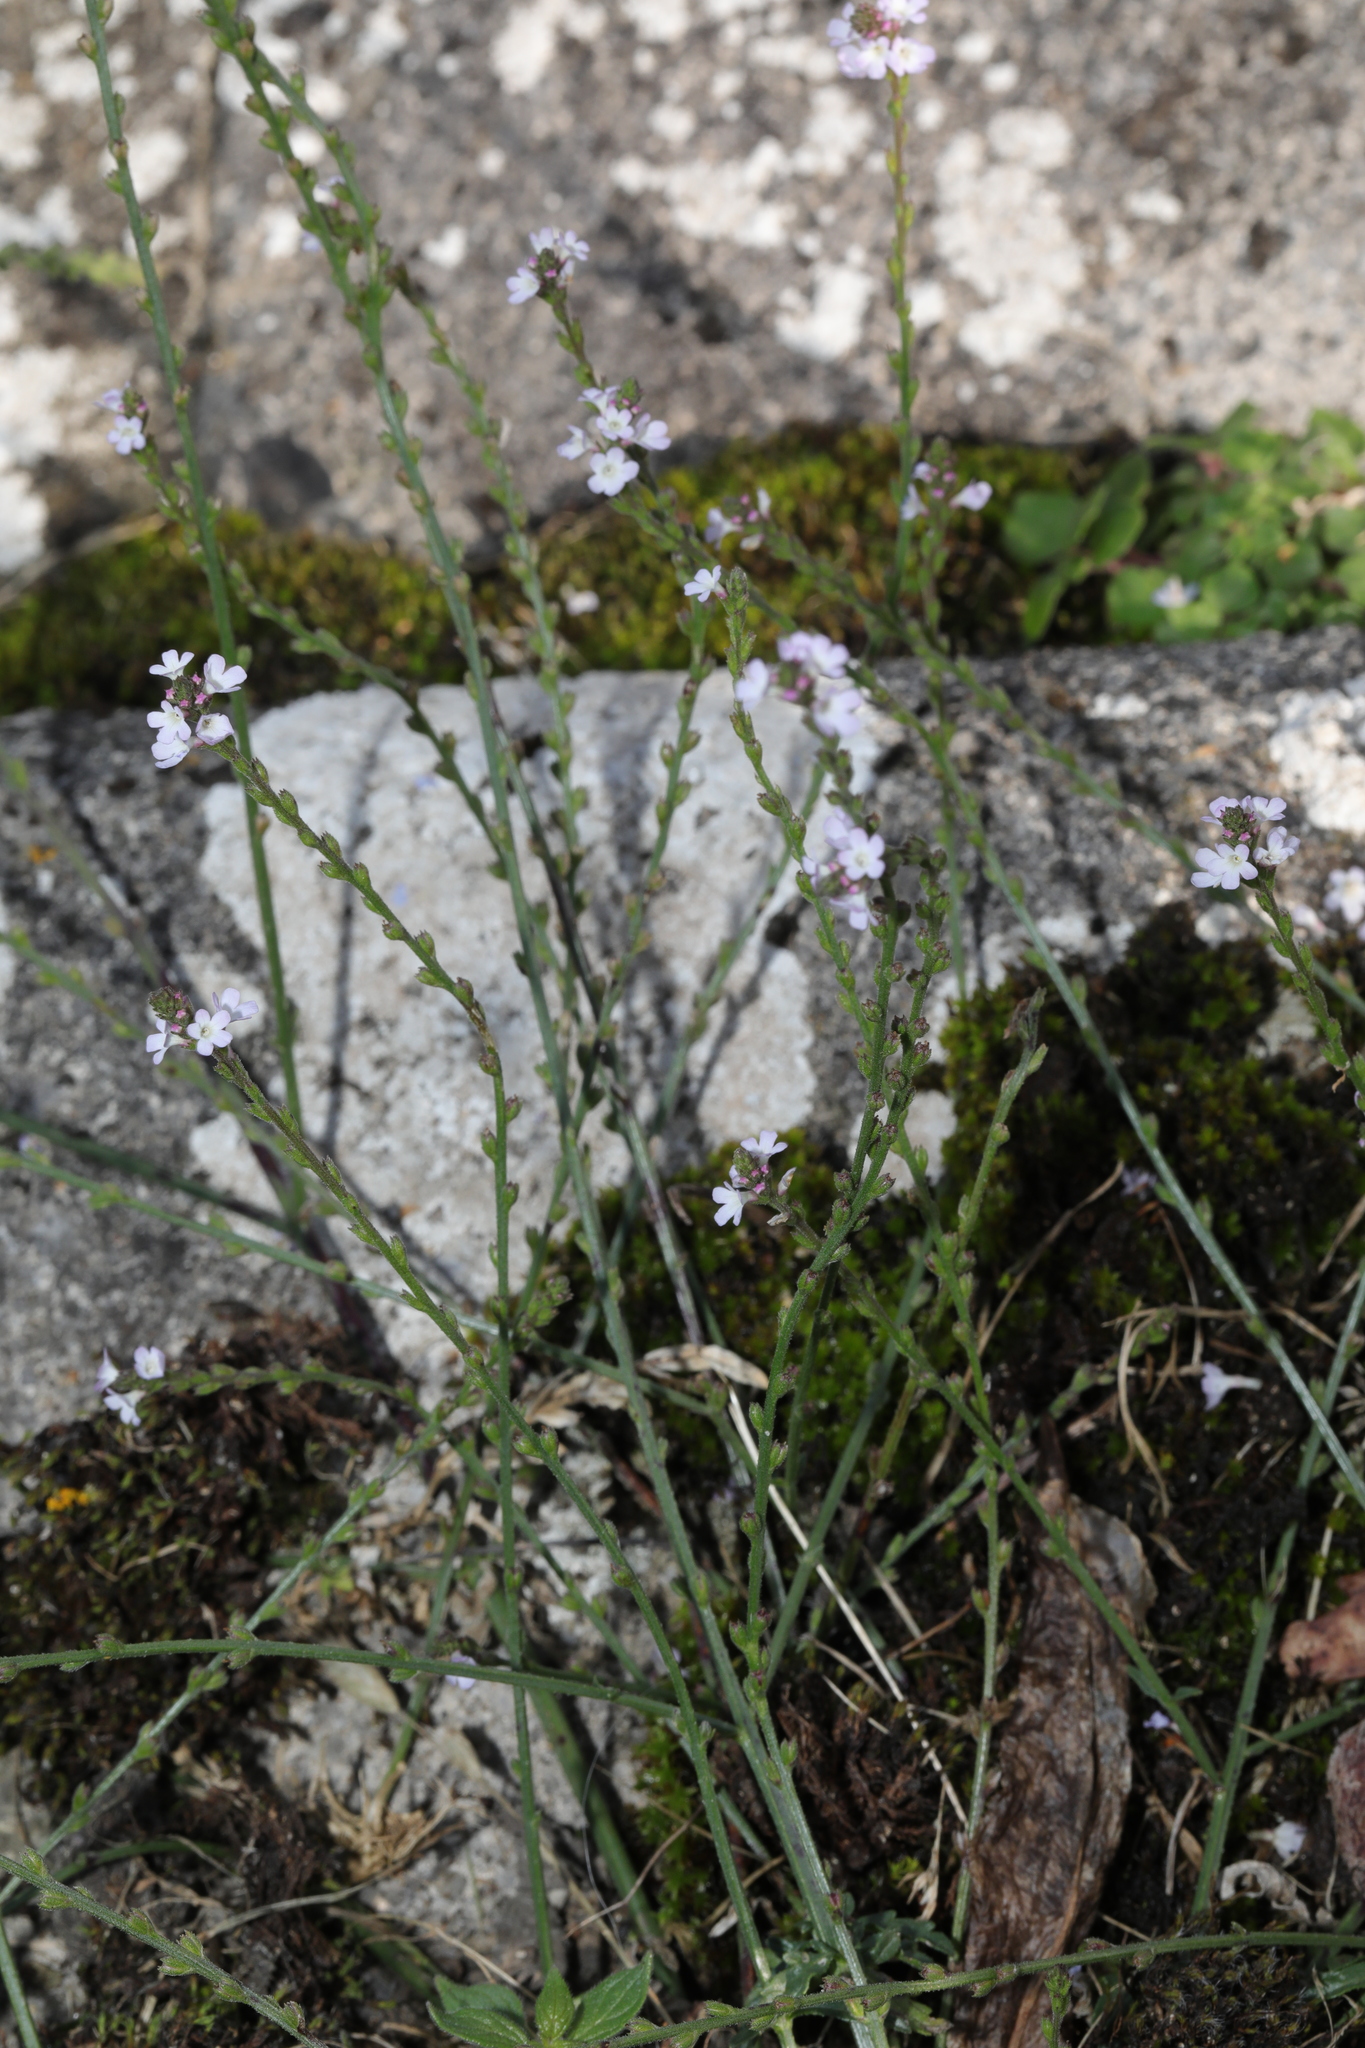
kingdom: Plantae
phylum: Tracheophyta
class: Magnoliopsida
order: Lamiales
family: Verbenaceae
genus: Verbena
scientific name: Verbena officinalis
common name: Vervain
